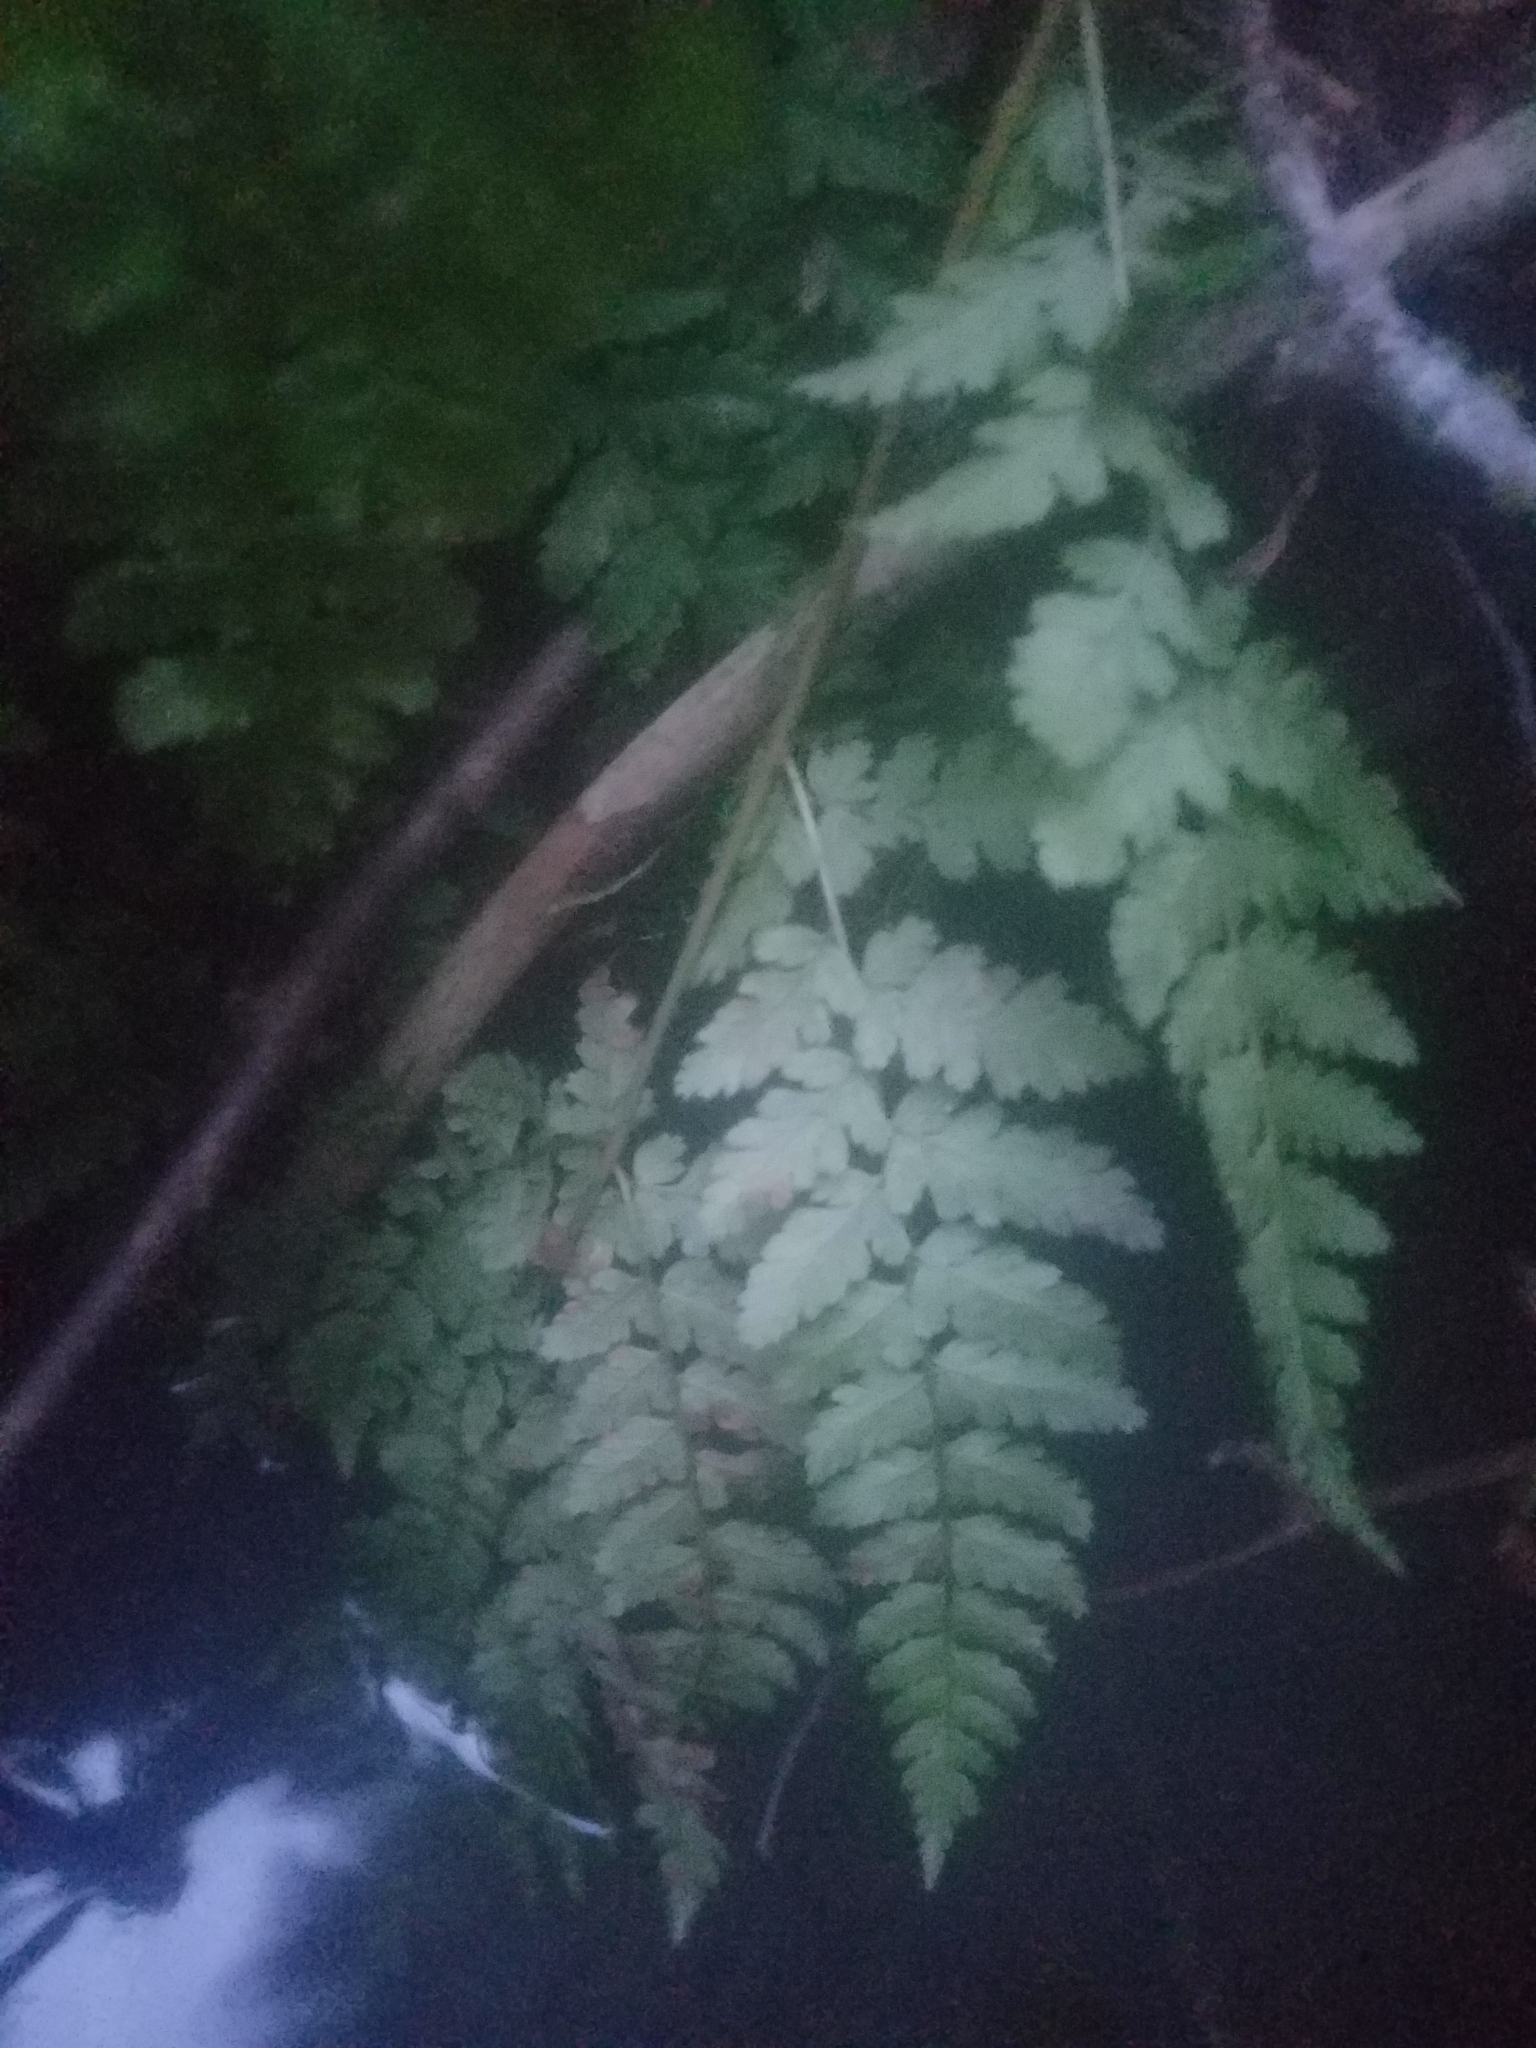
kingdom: Plantae
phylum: Tracheophyta
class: Polypodiopsida
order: Polypodiales
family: Dryopteridaceae
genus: Dryopteris
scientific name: Dryopteris expansa
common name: Northern buckler fern
